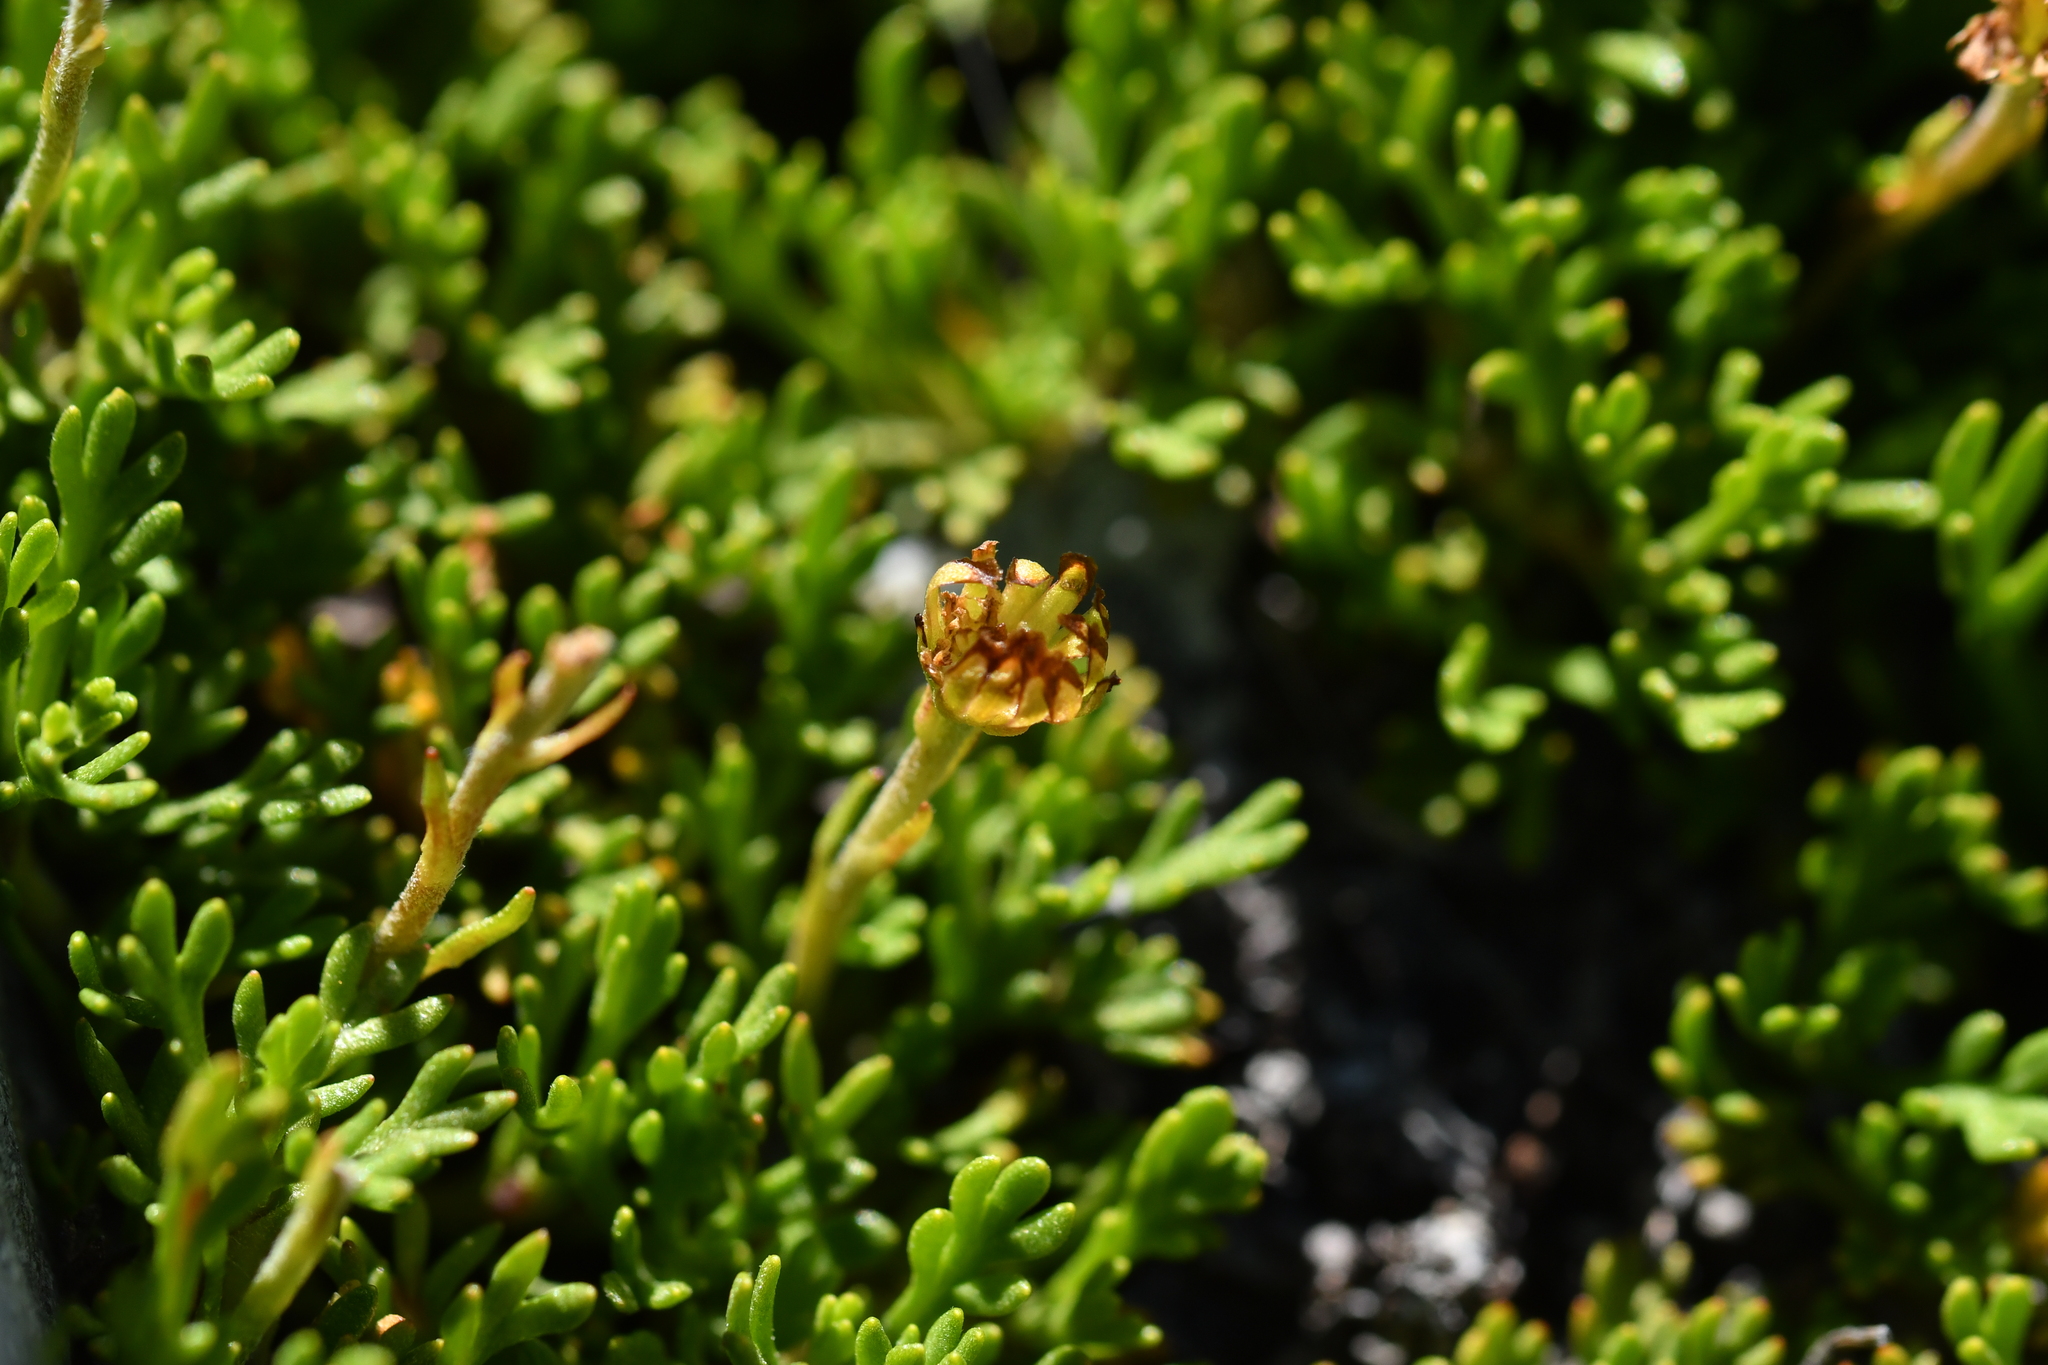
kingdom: Plantae
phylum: Tracheophyta
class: Magnoliopsida
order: Asterales
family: Asteraceae
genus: Leptinella
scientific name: Leptinella pyrethrifolia
